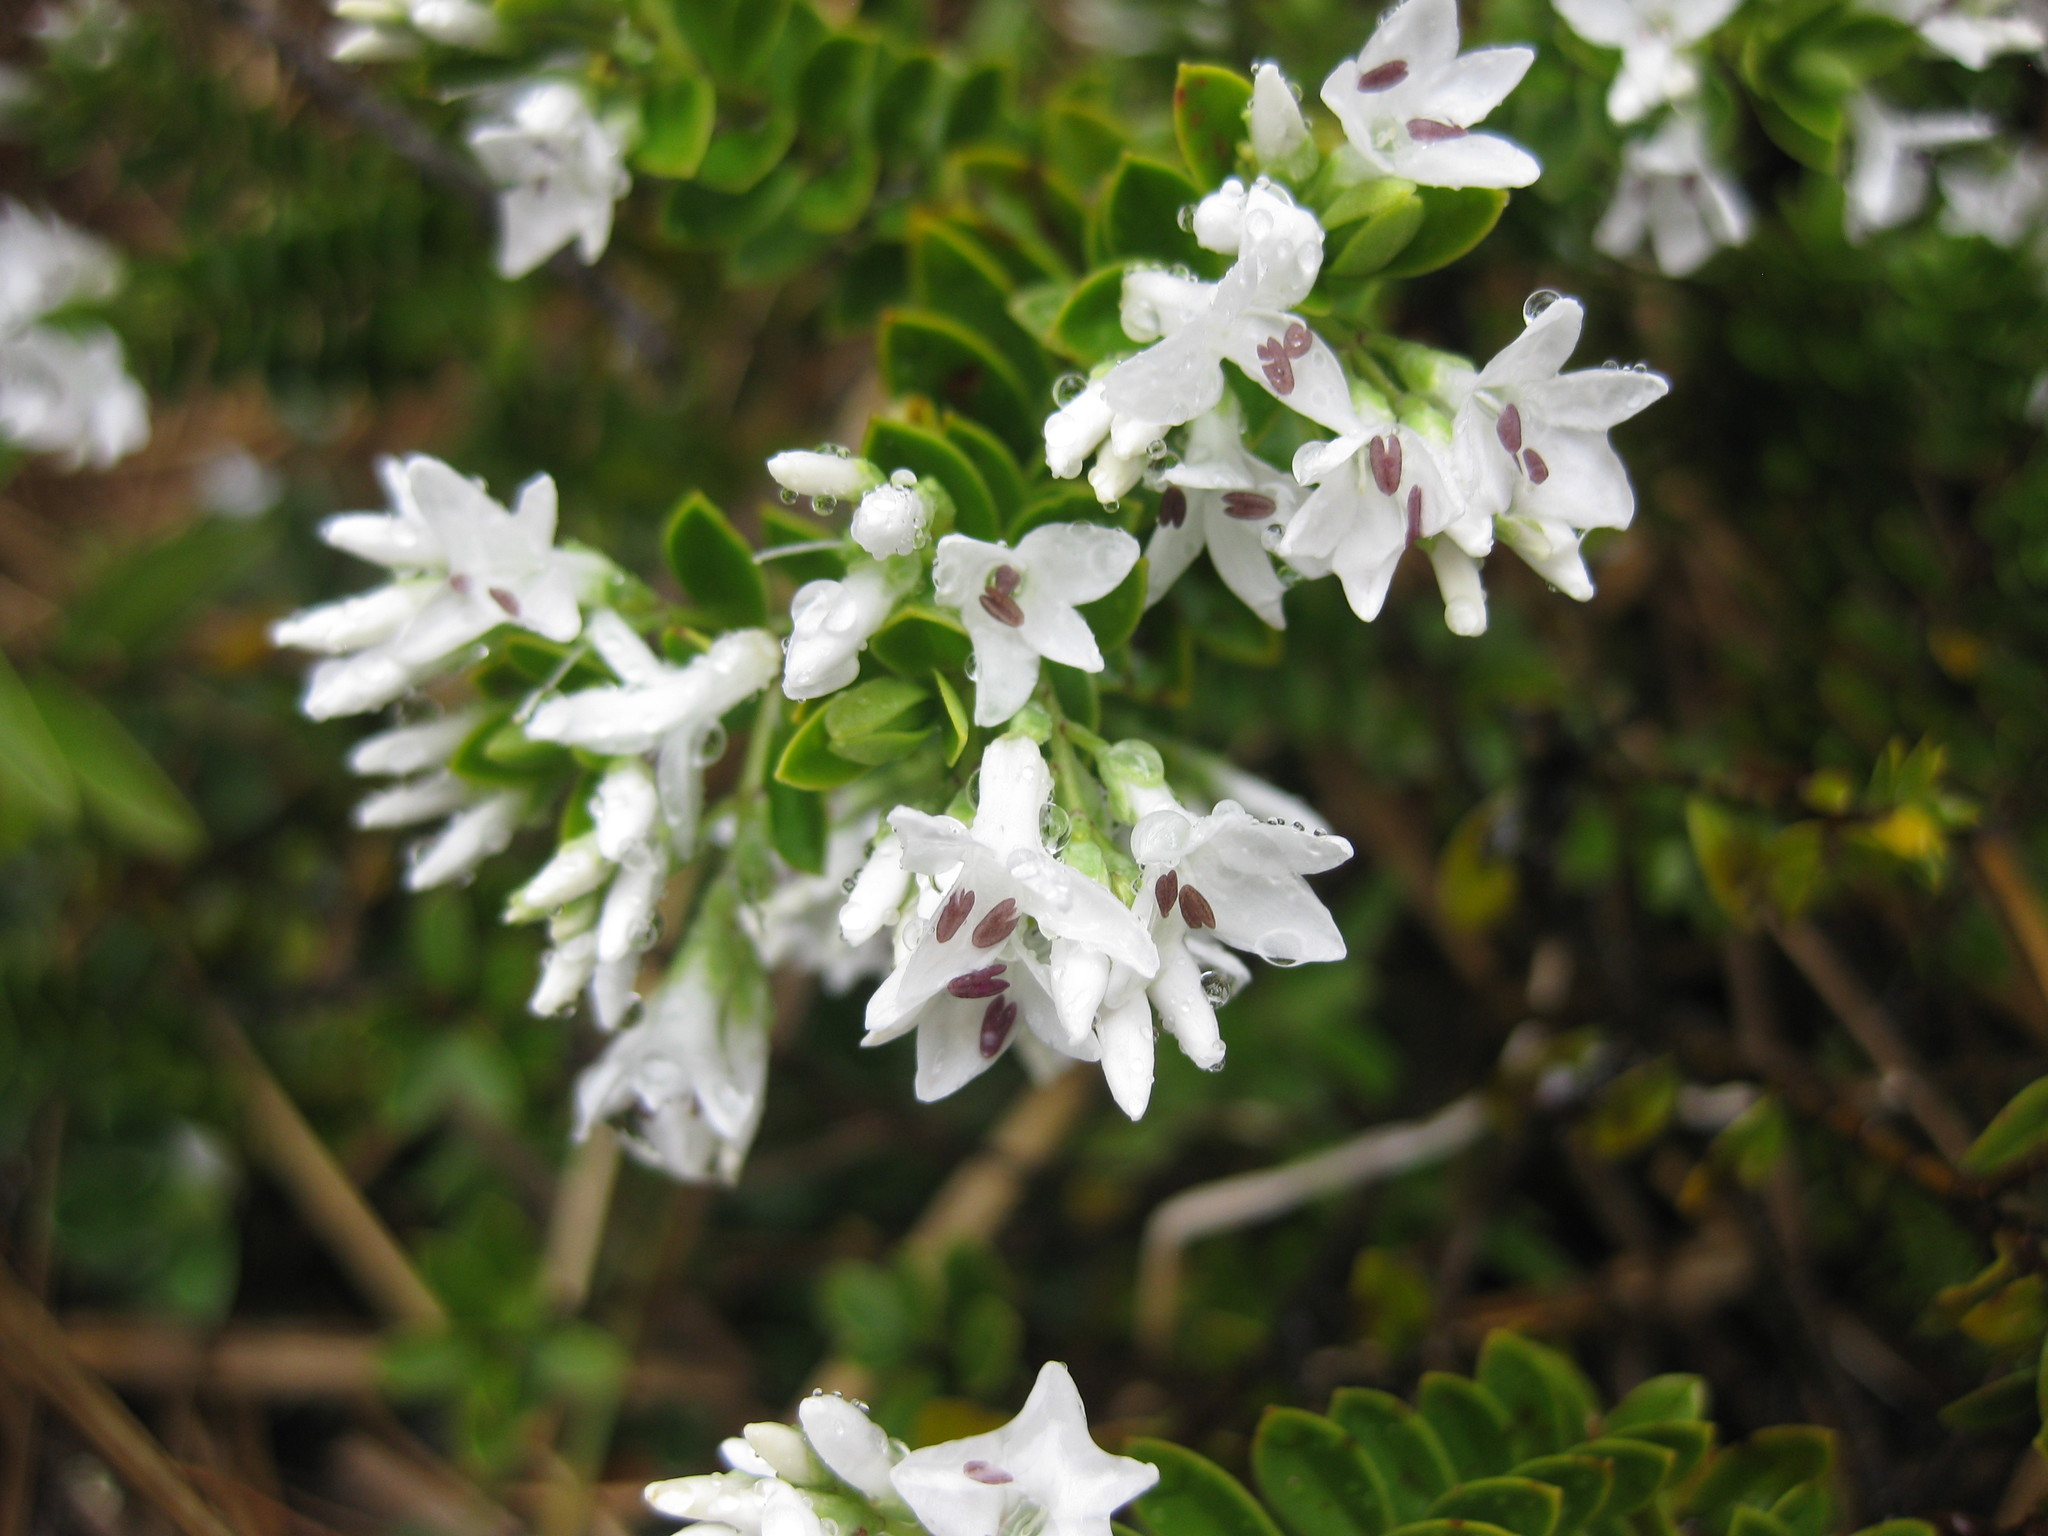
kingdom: Plantae
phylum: Tracheophyta
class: Magnoliopsida
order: Lamiales
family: Plantaginaceae
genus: Veronica
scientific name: Veronica canterburiensis
